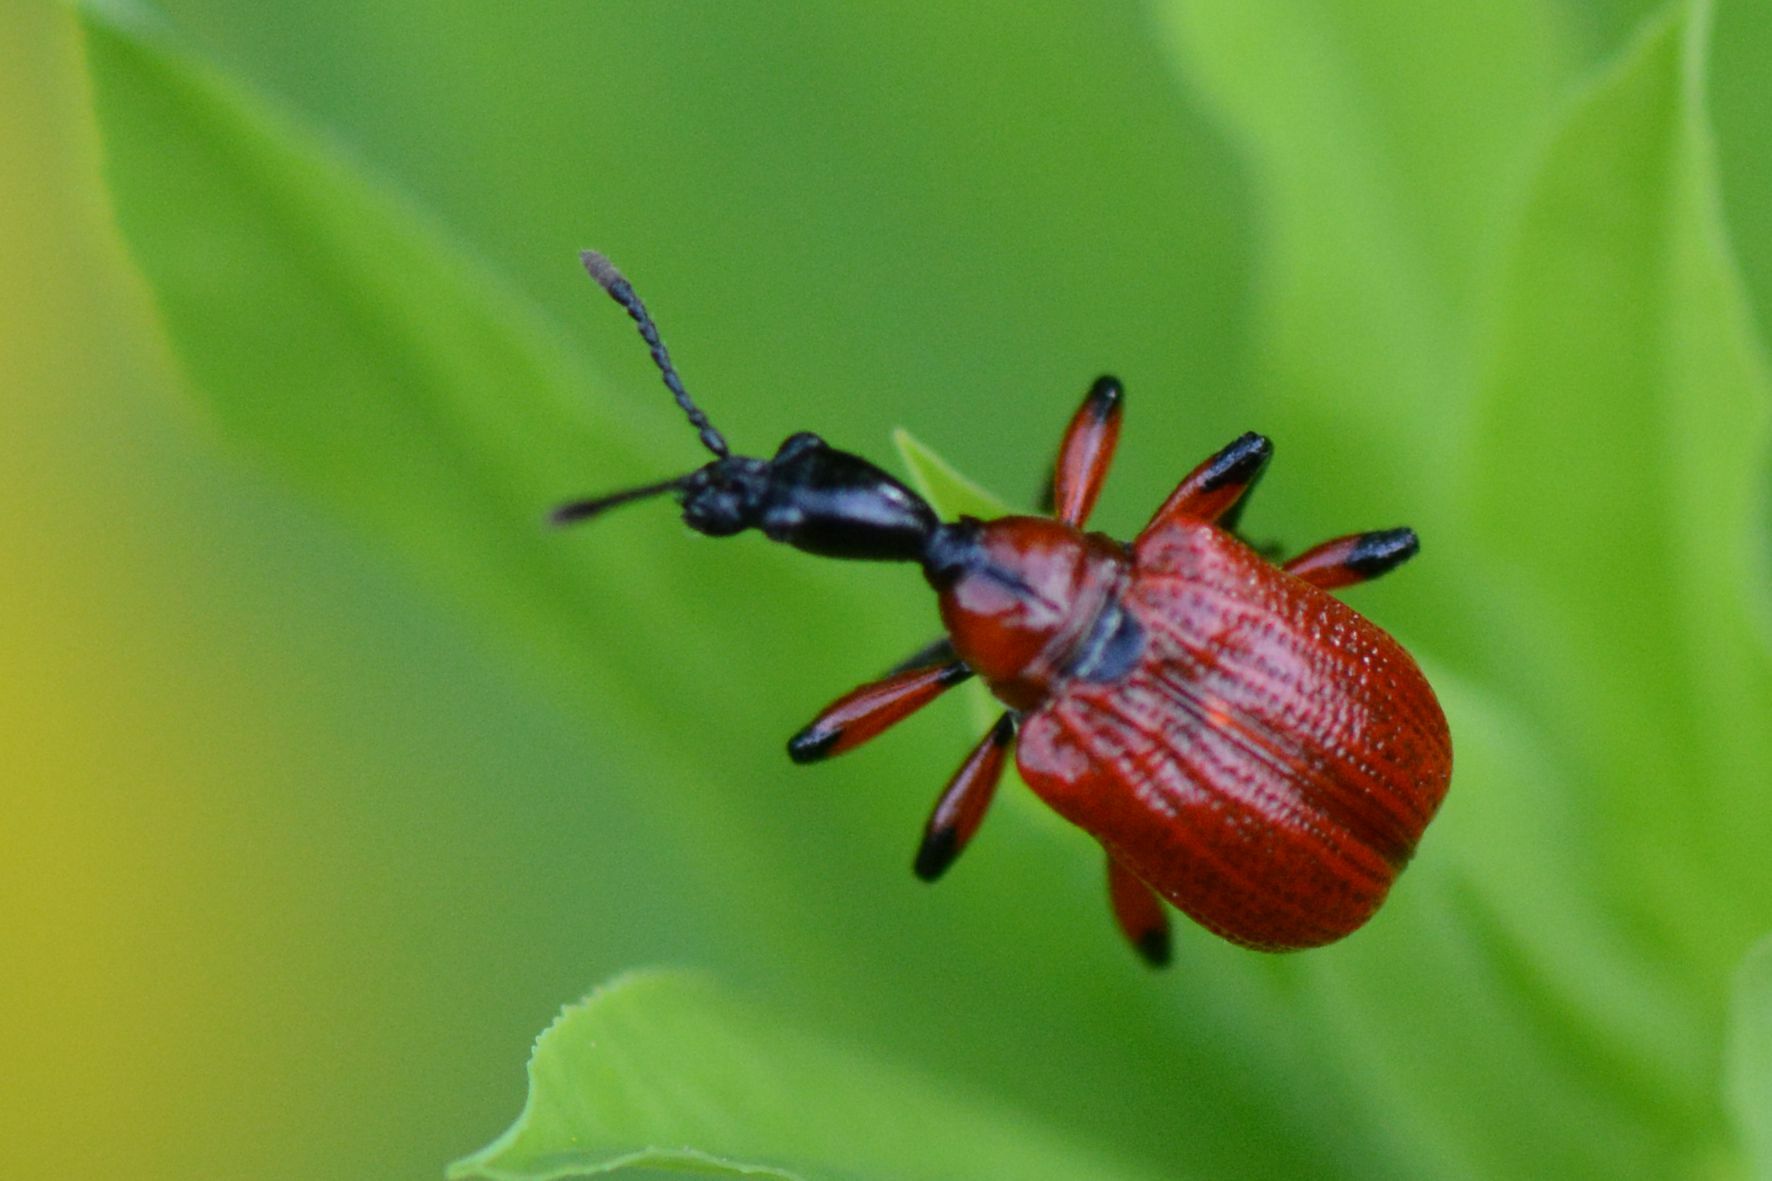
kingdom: Animalia
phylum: Arthropoda
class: Insecta
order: Coleoptera
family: Attelabidae
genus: Apoderus
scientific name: Apoderus coryli
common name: Hazel leaf roller
